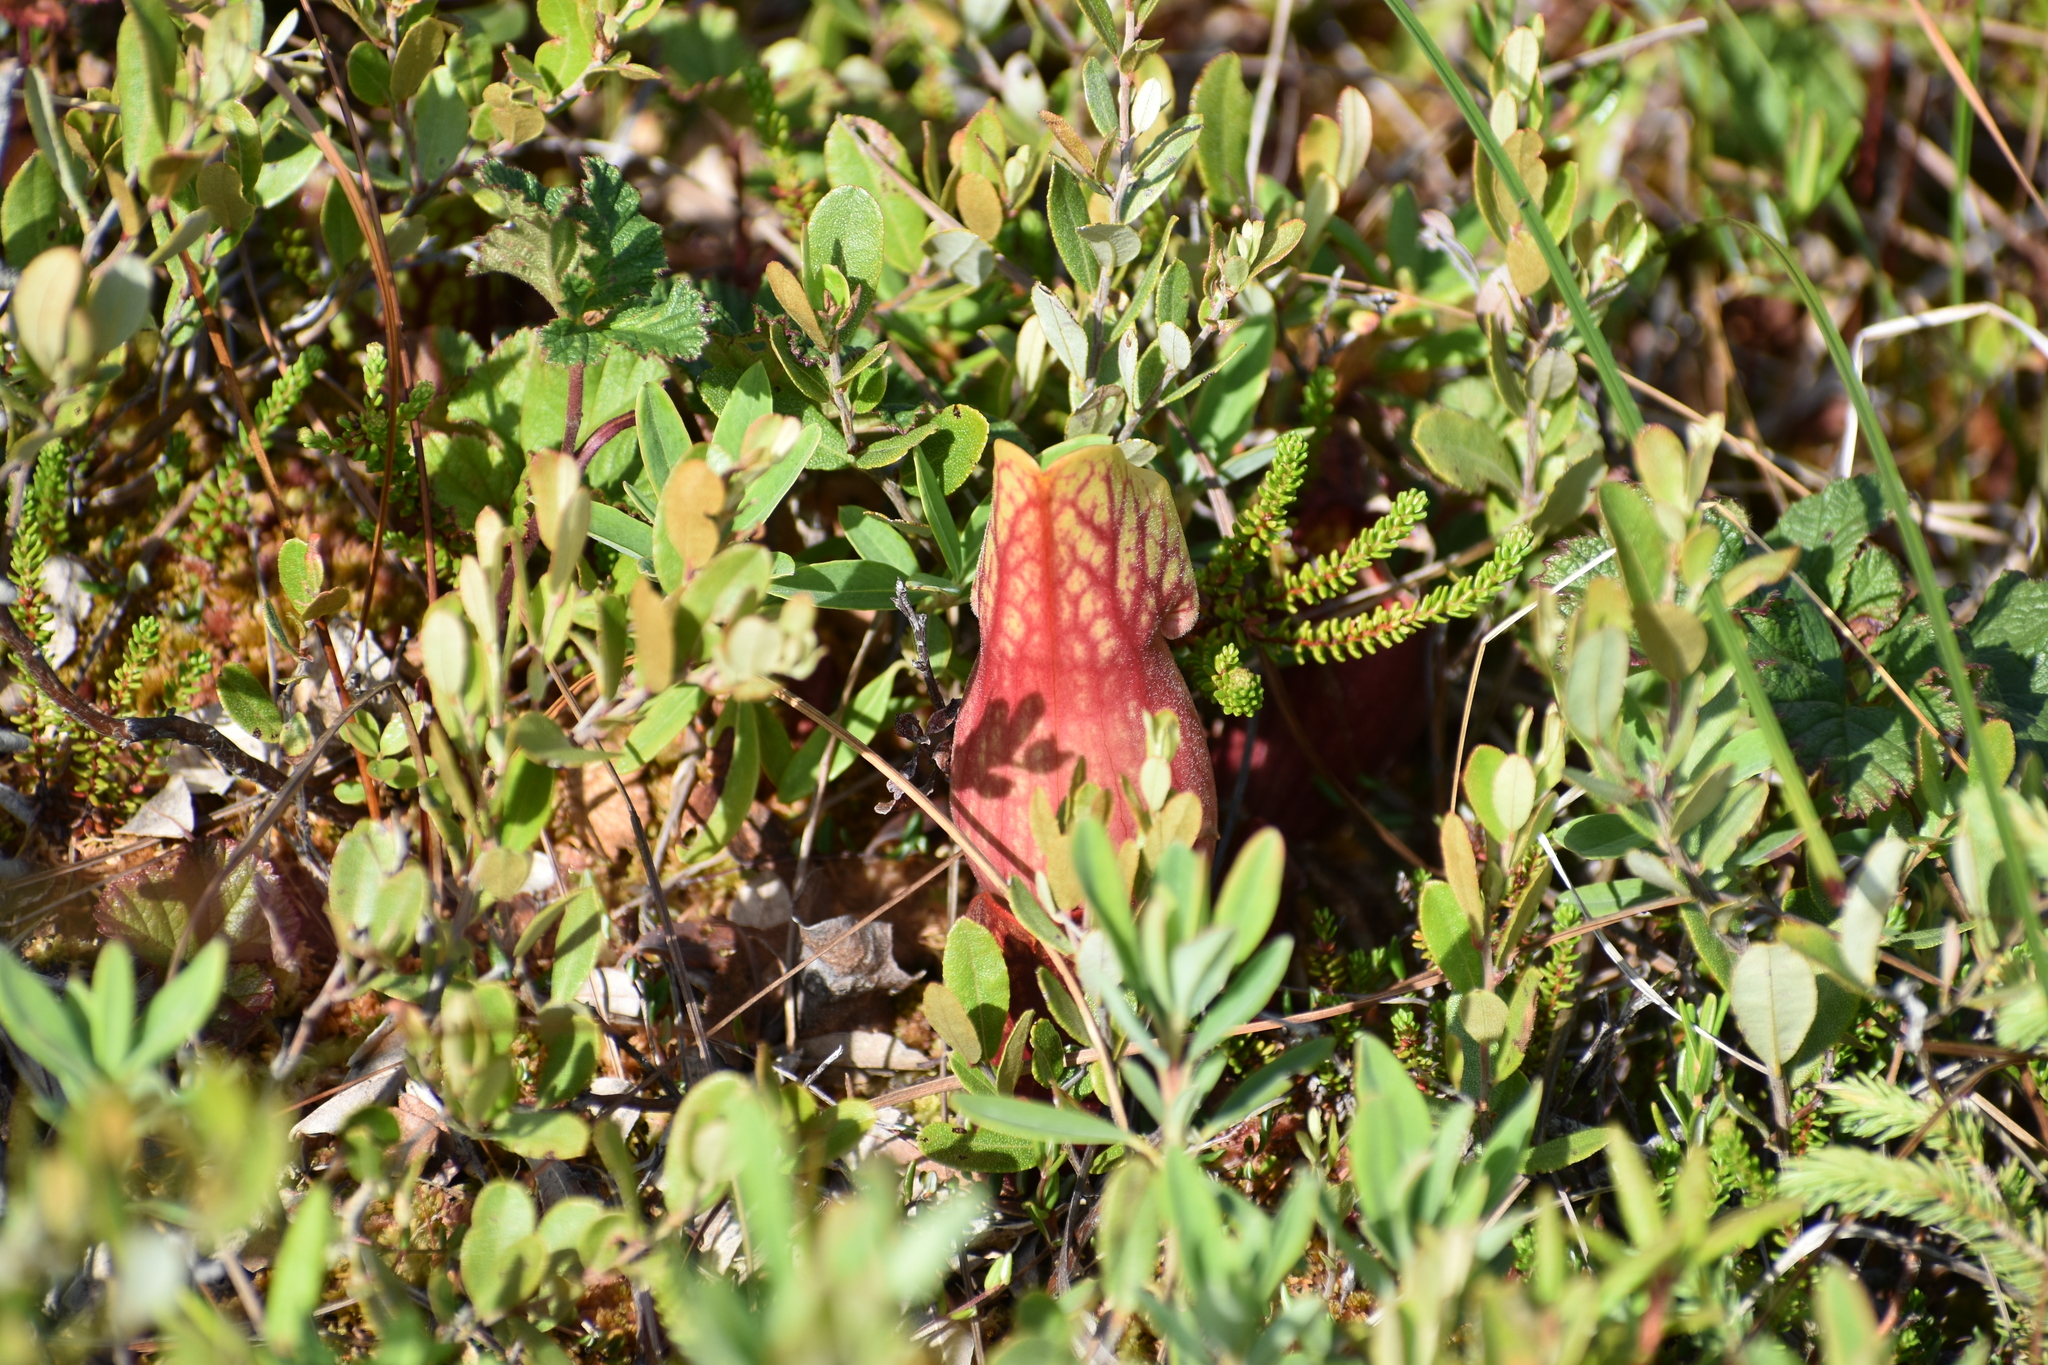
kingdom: Plantae
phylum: Tracheophyta
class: Magnoliopsida
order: Ericales
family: Sarraceniaceae
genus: Sarracenia
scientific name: Sarracenia purpurea
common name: Pitcherplant
